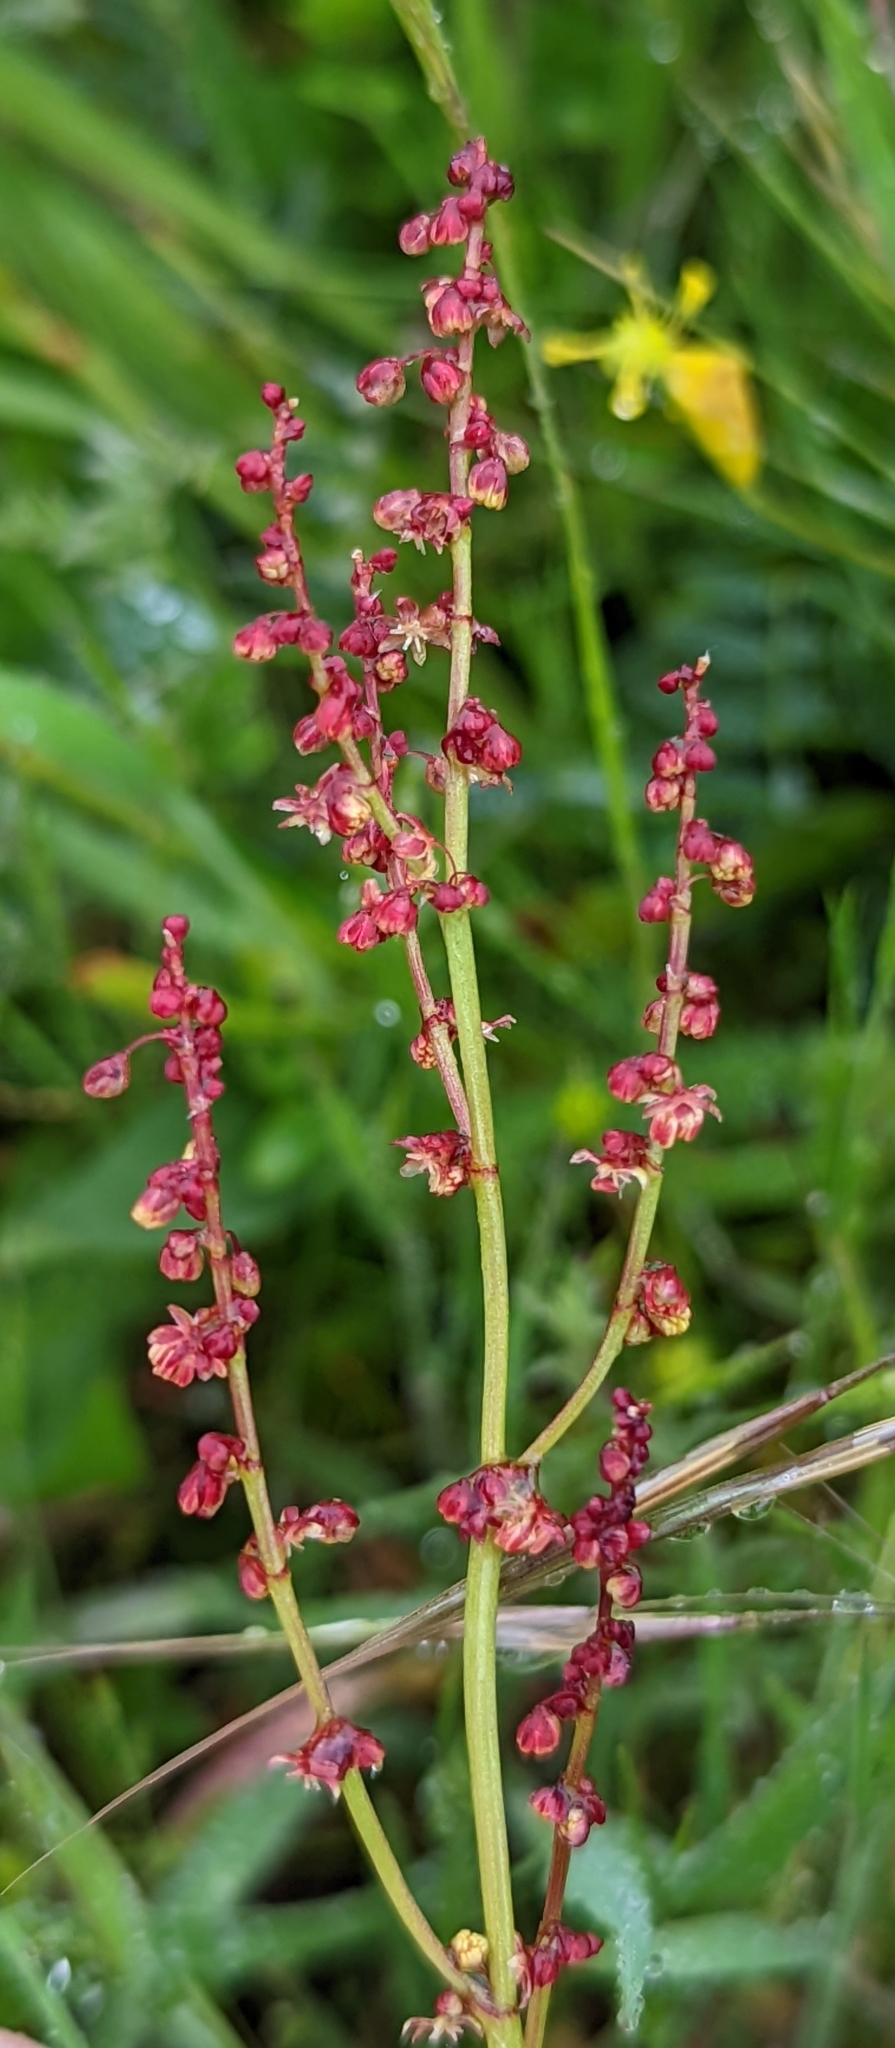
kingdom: Plantae
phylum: Tracheophyta
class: Magnoliopsida
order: Caryophyllales
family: Polygonaceae
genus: Rumex
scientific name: Rumex acetosella
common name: Common sheep sorrel
